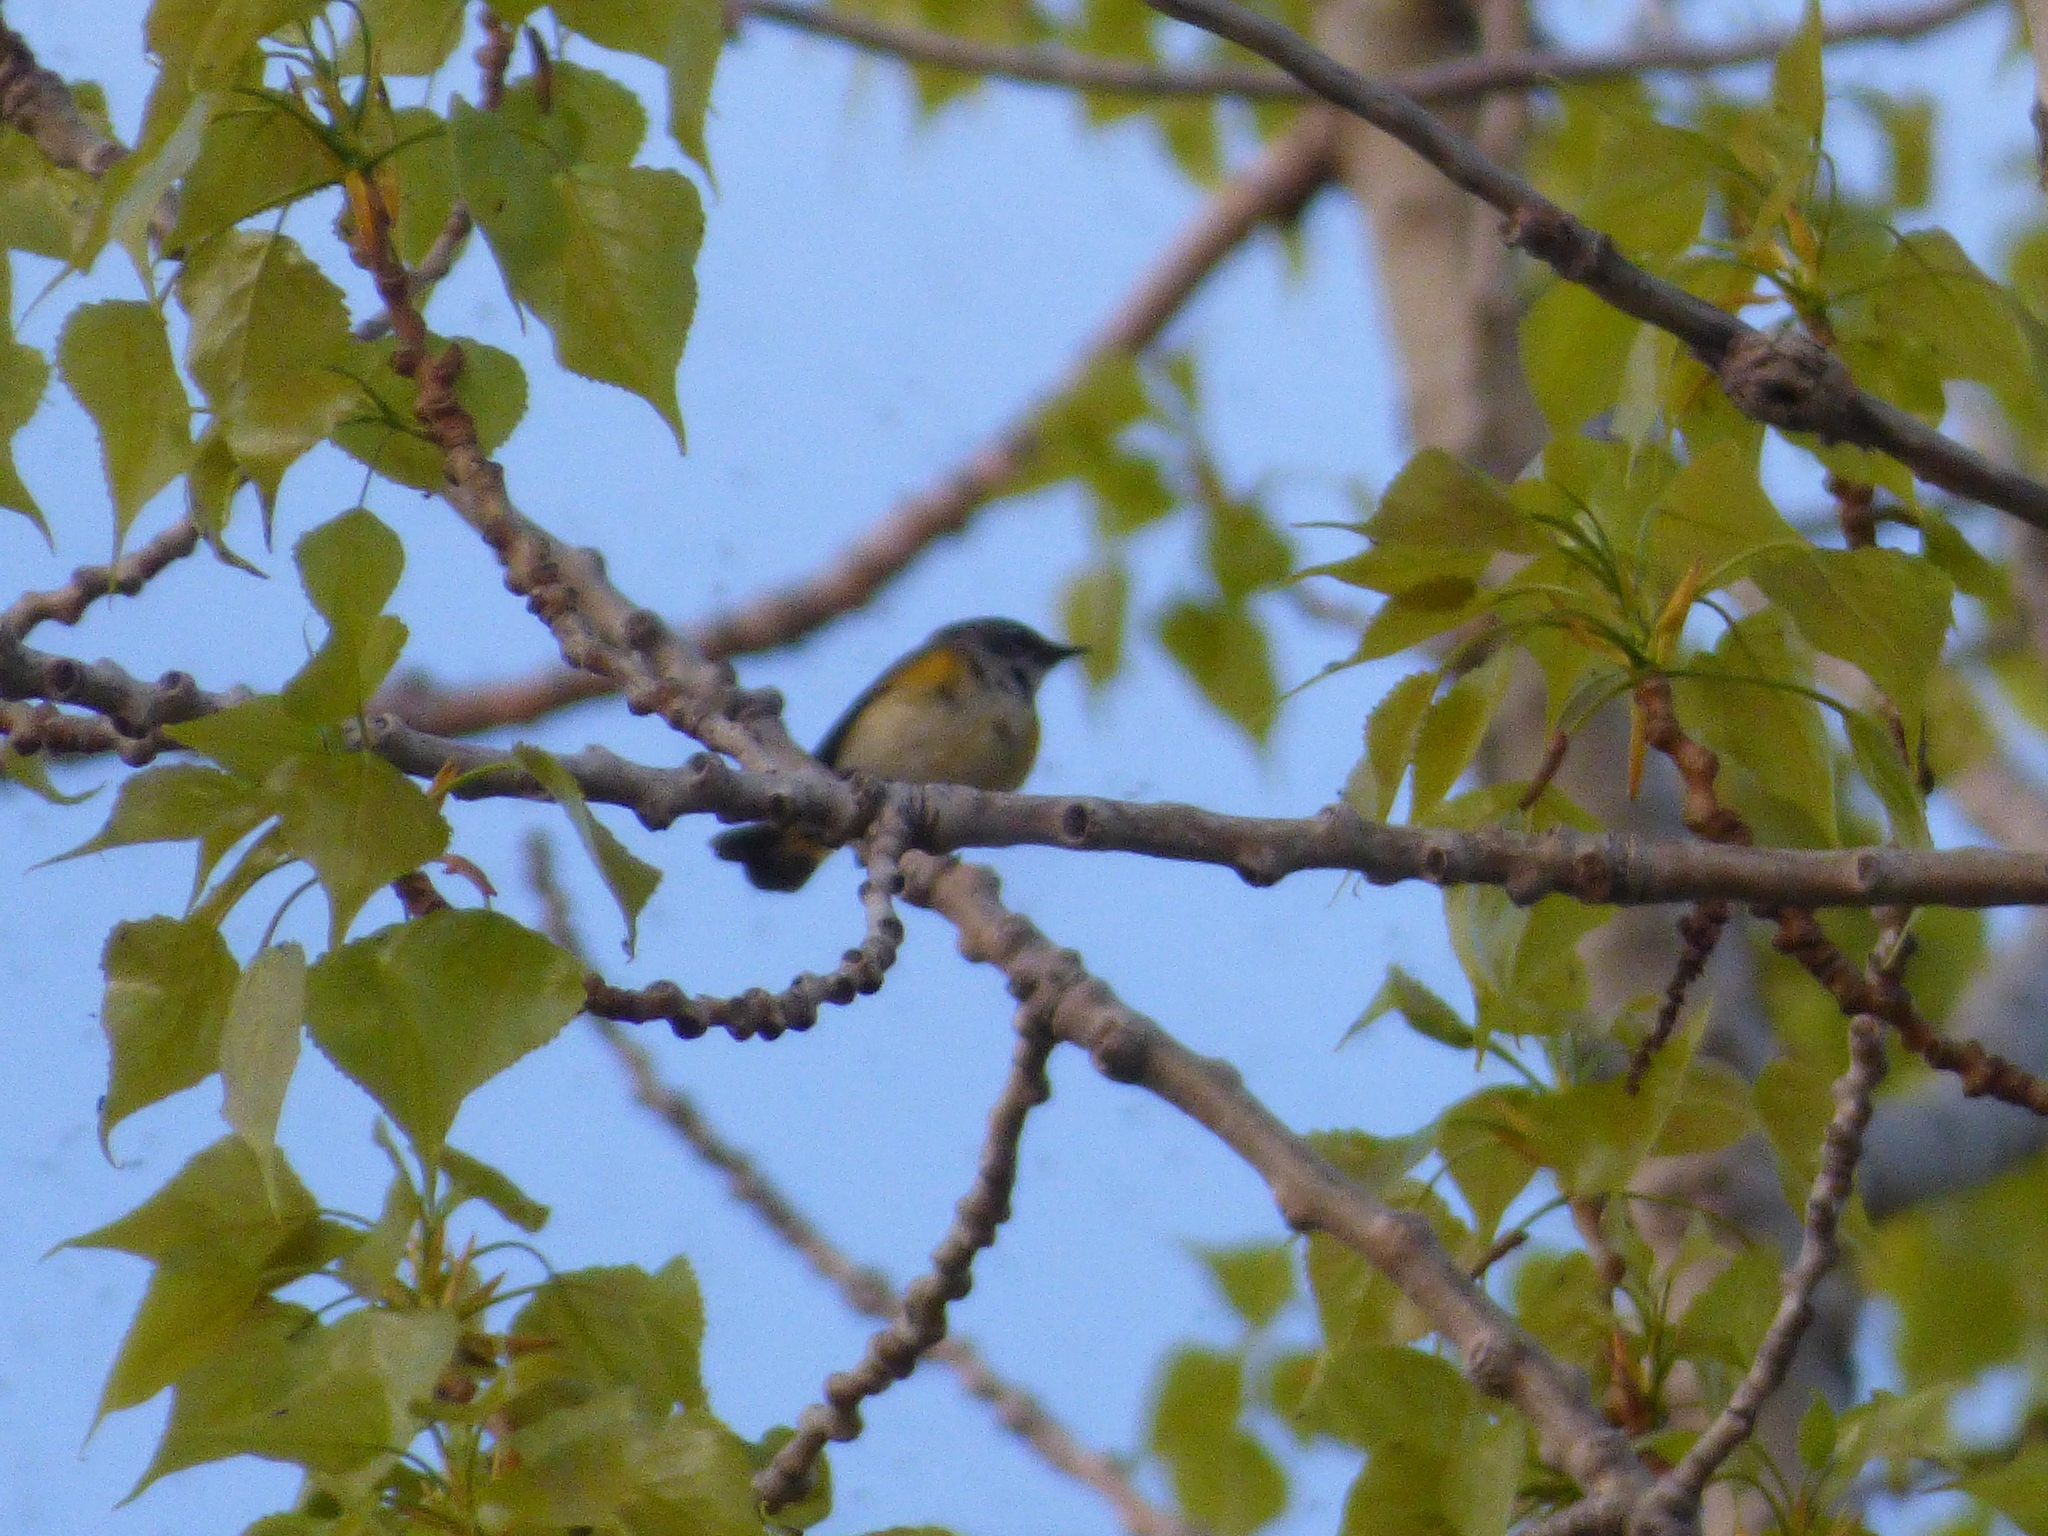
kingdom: Animalia
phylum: Chordata
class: Aves
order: Passeriformes
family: Parulidae
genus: Setophaga
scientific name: Setophaga ruticilla
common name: American redstart
